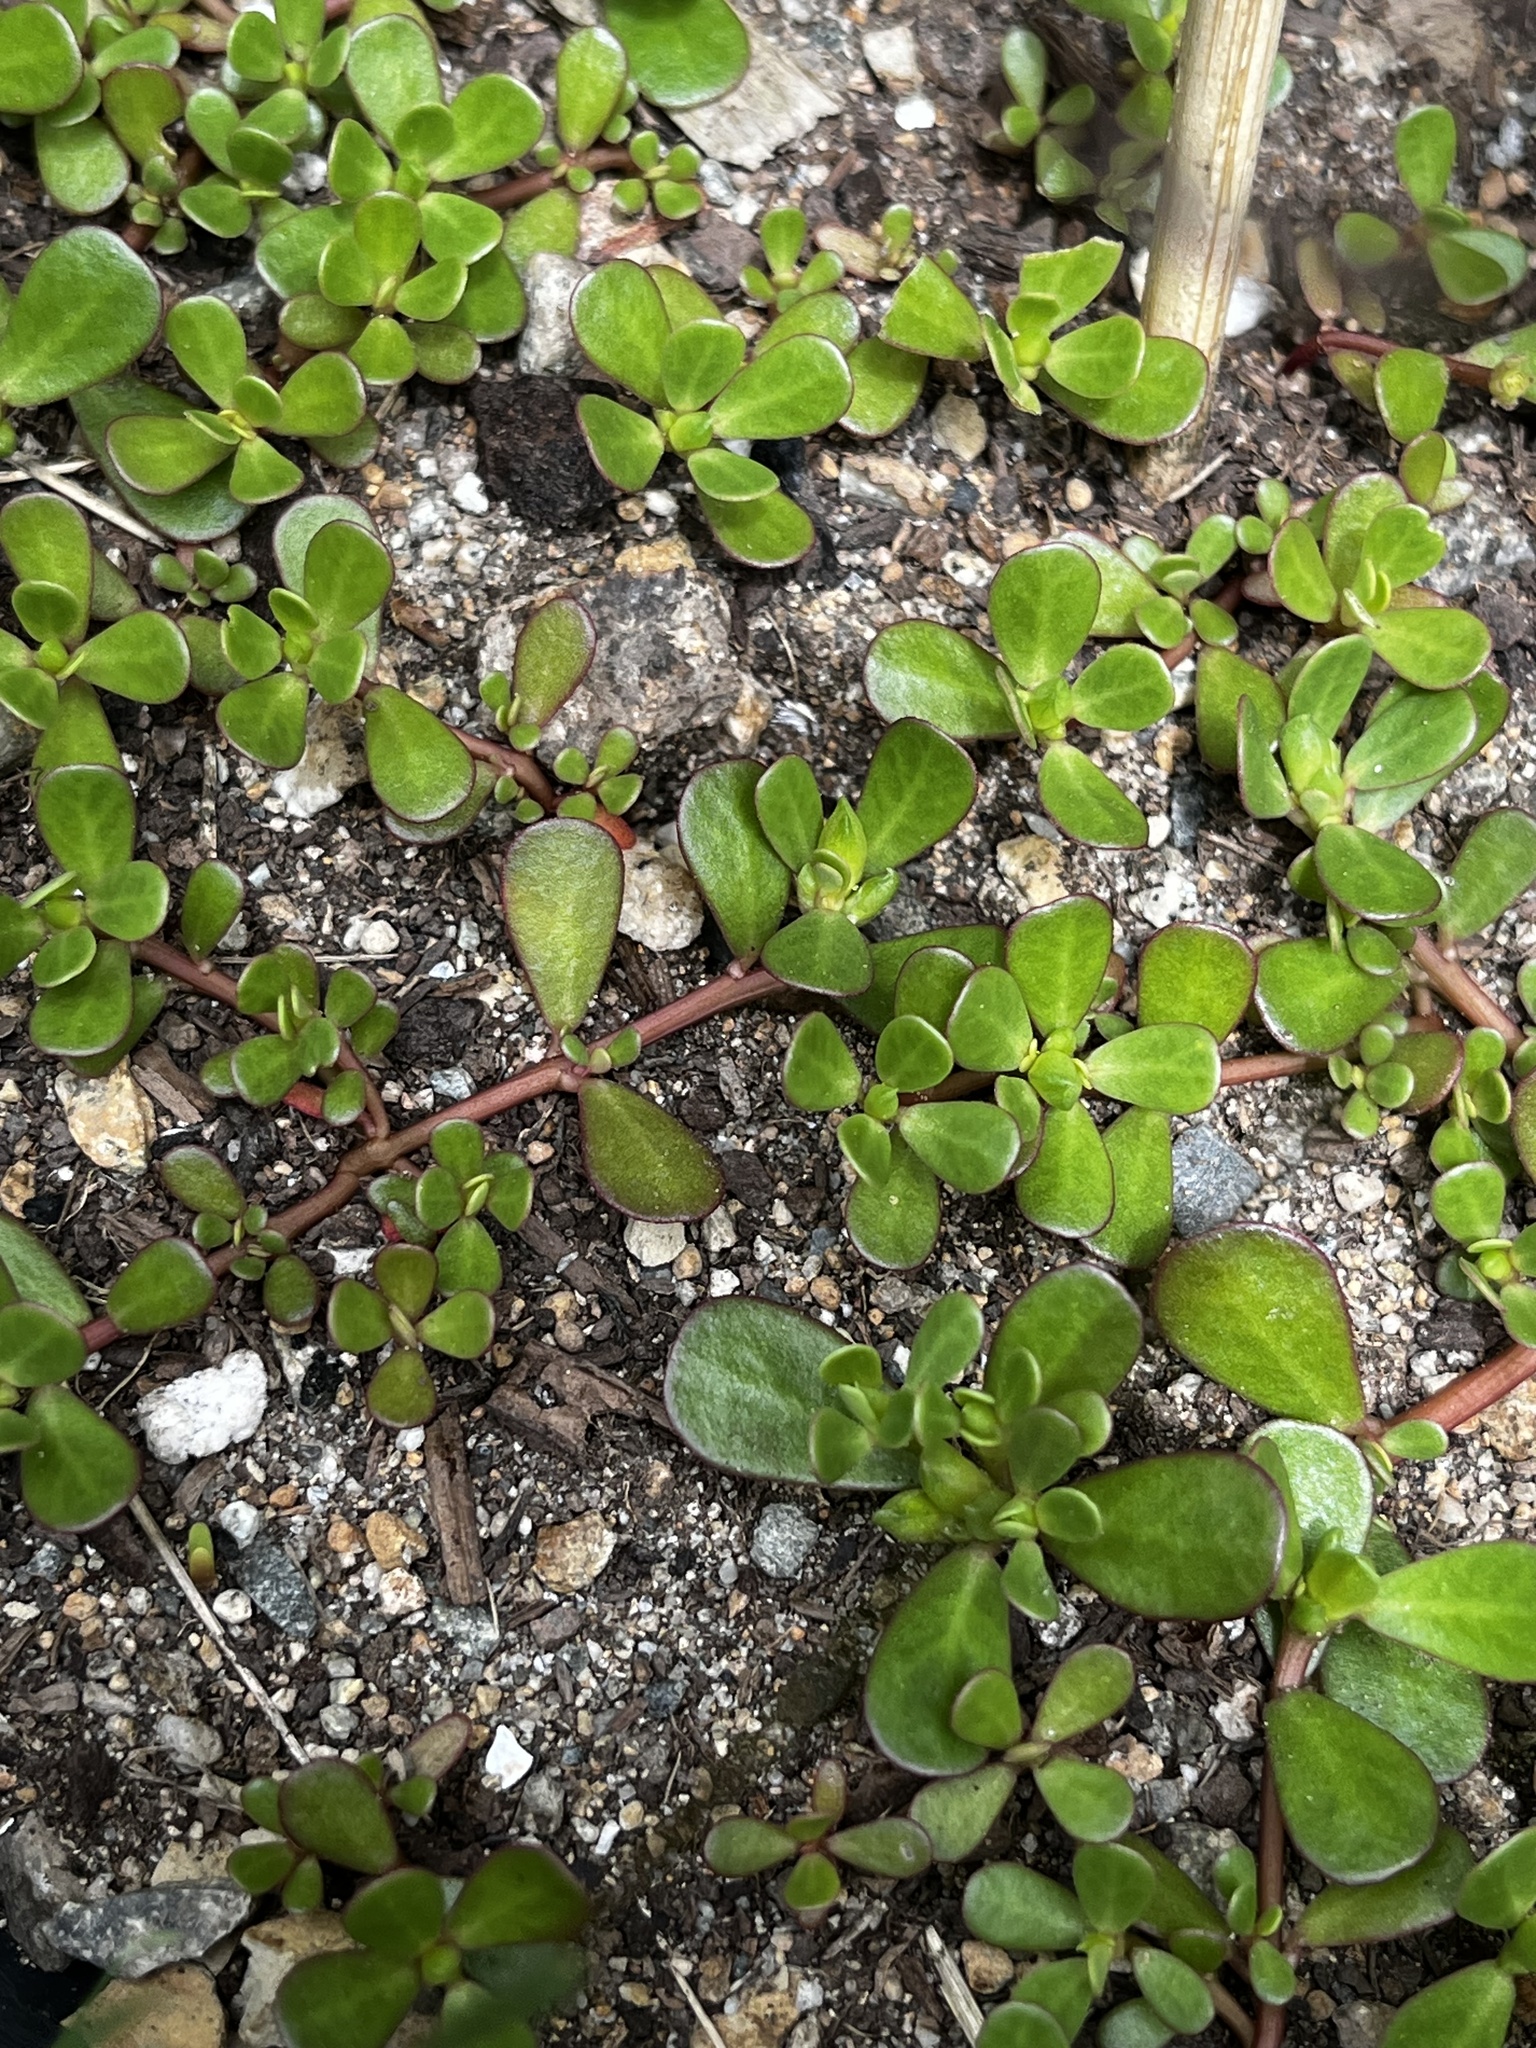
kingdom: Plantae
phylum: Tracheophyta
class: Magnoliopsida
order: Caryophyllales
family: Portulacaceae
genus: Portulaca
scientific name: Portulaca oleracea
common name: Common purslane
